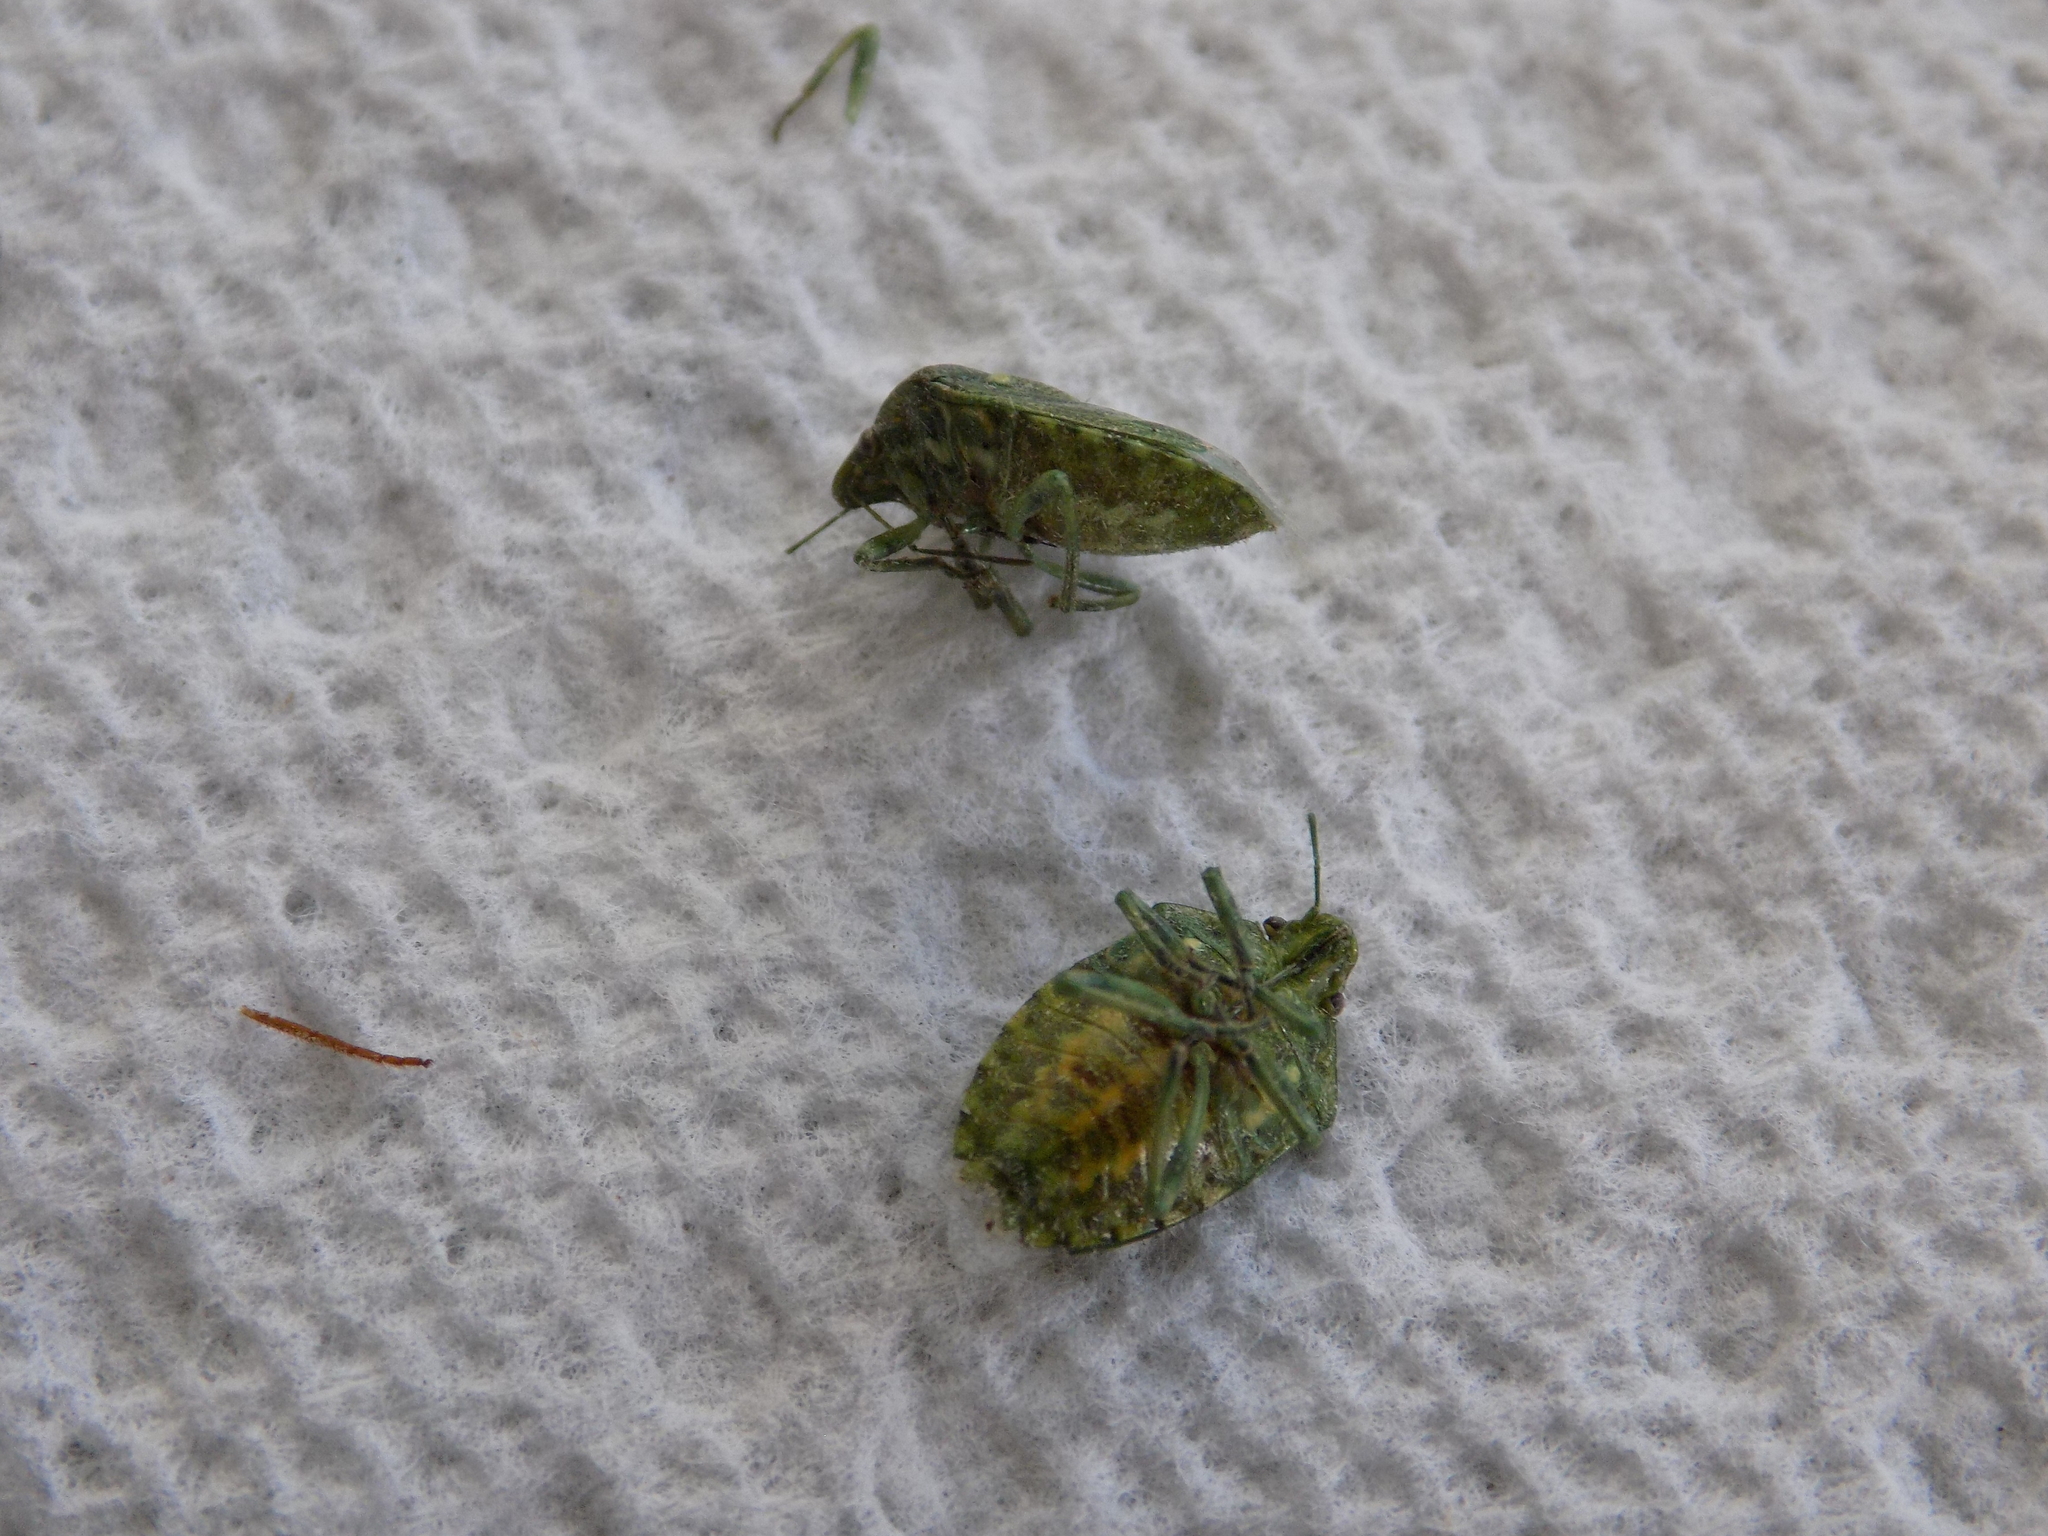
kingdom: Animalia
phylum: Arthropoda
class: Insecta
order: Hemiptera
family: Pentatomidae
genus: Banasa
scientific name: Banasa euchlora
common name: Cedar berry bug
